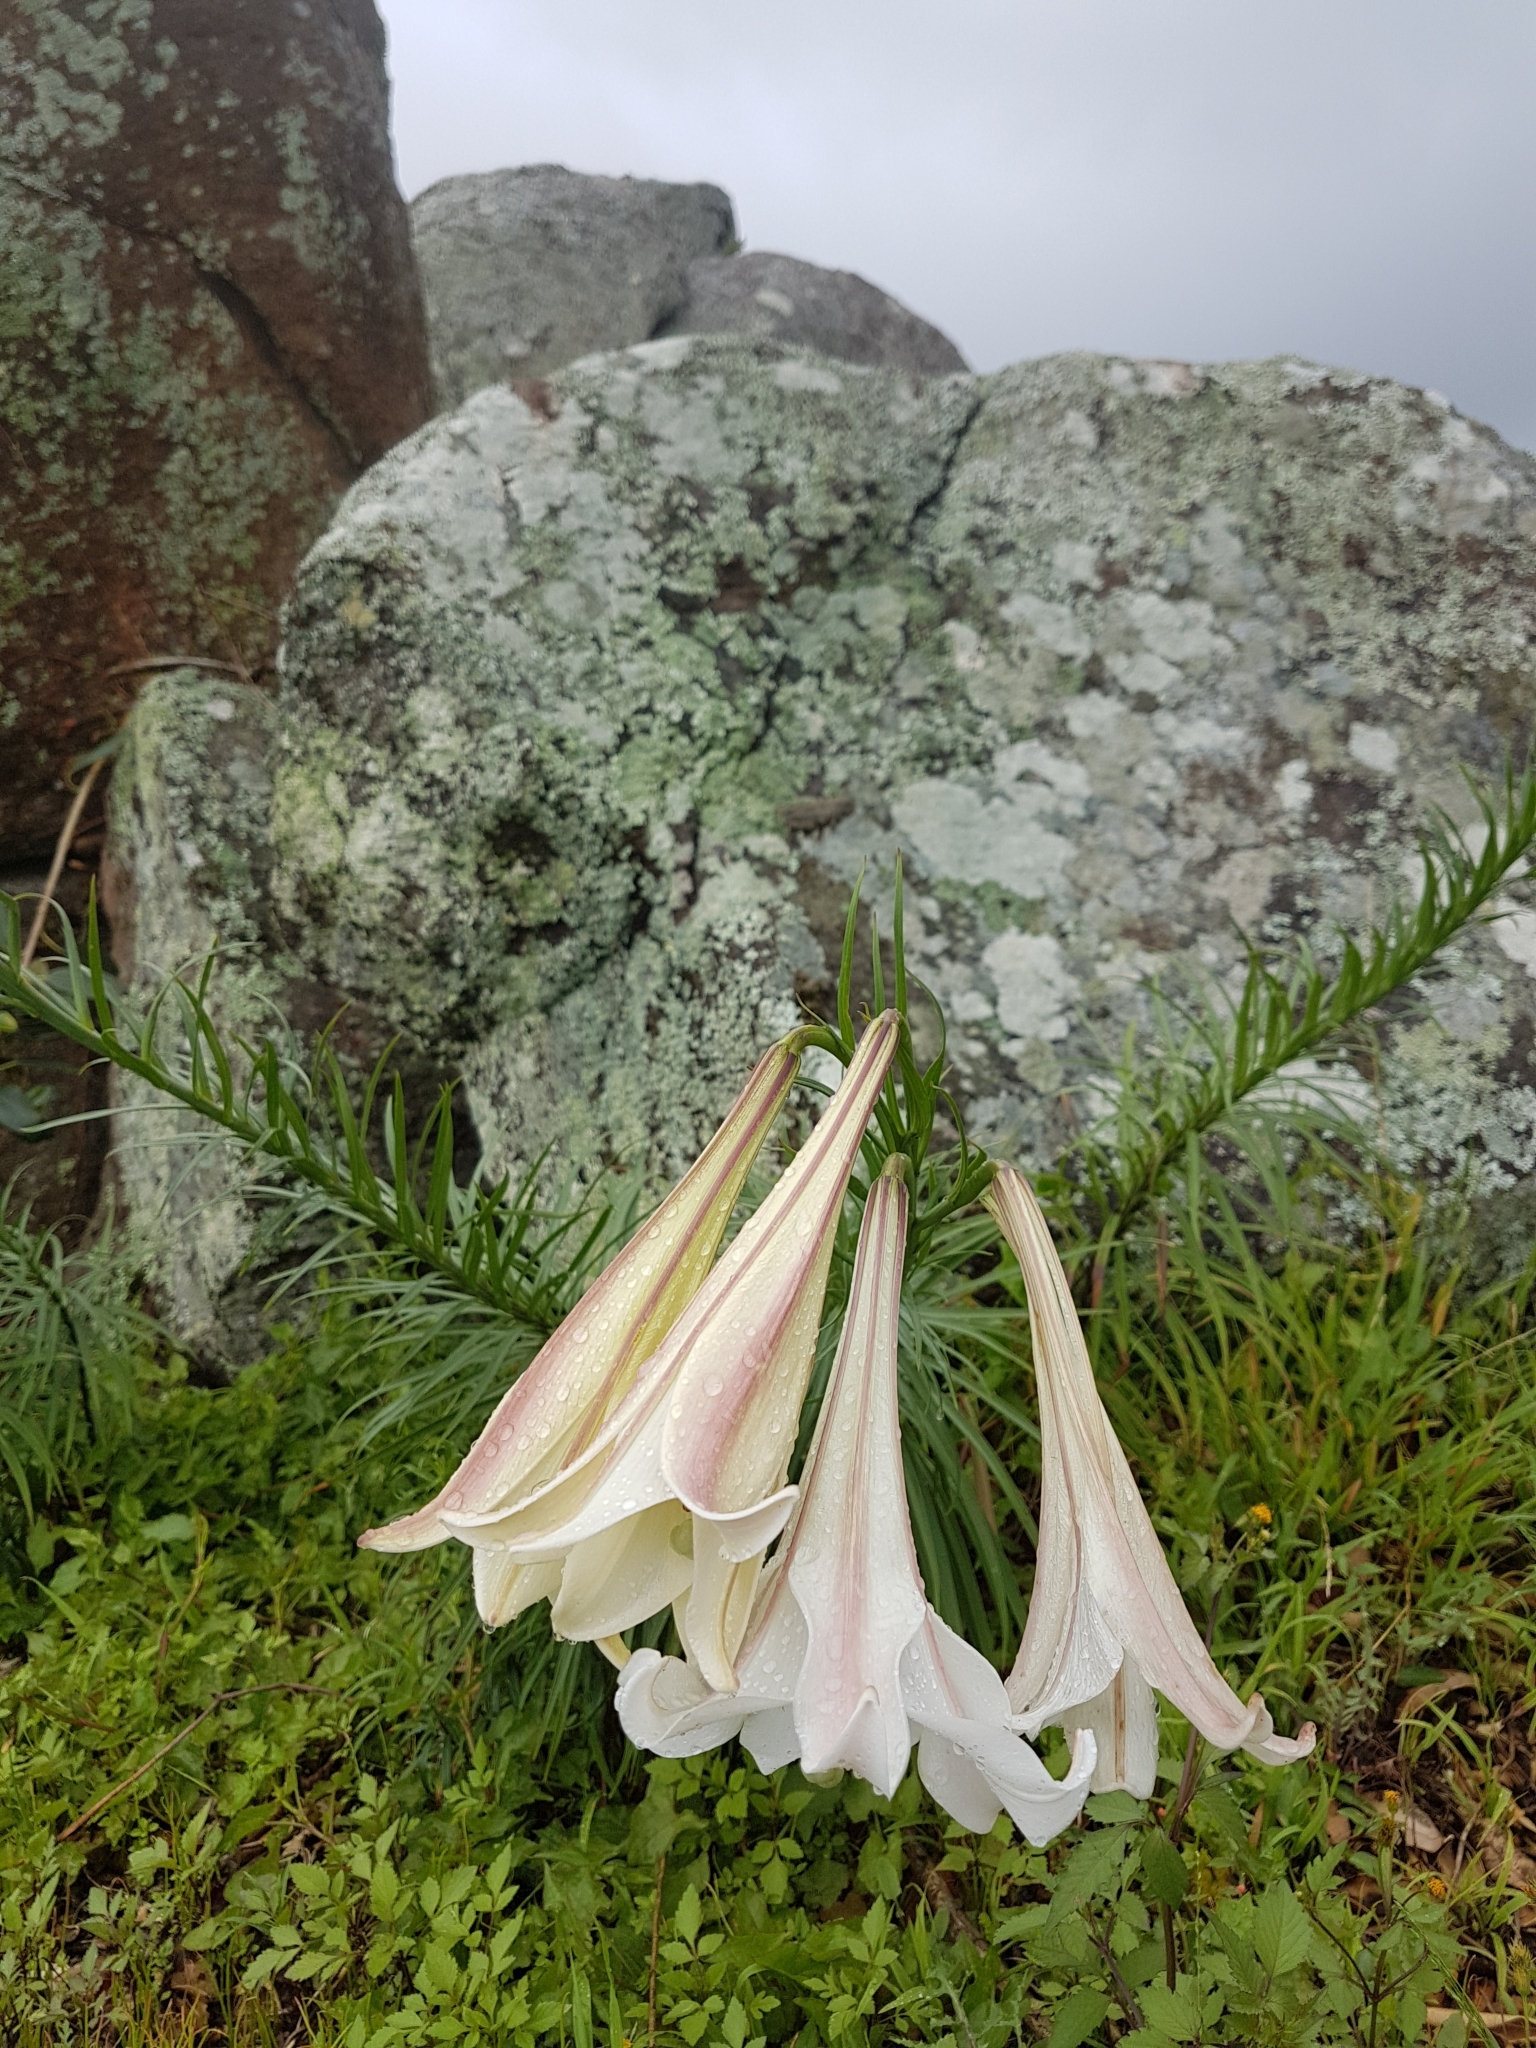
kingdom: Plantae
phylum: Tracheophyta
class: Liliopsida
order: Liliales
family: Liliaceae
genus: Lilium
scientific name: Lilium formosanum
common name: Formosa lily
